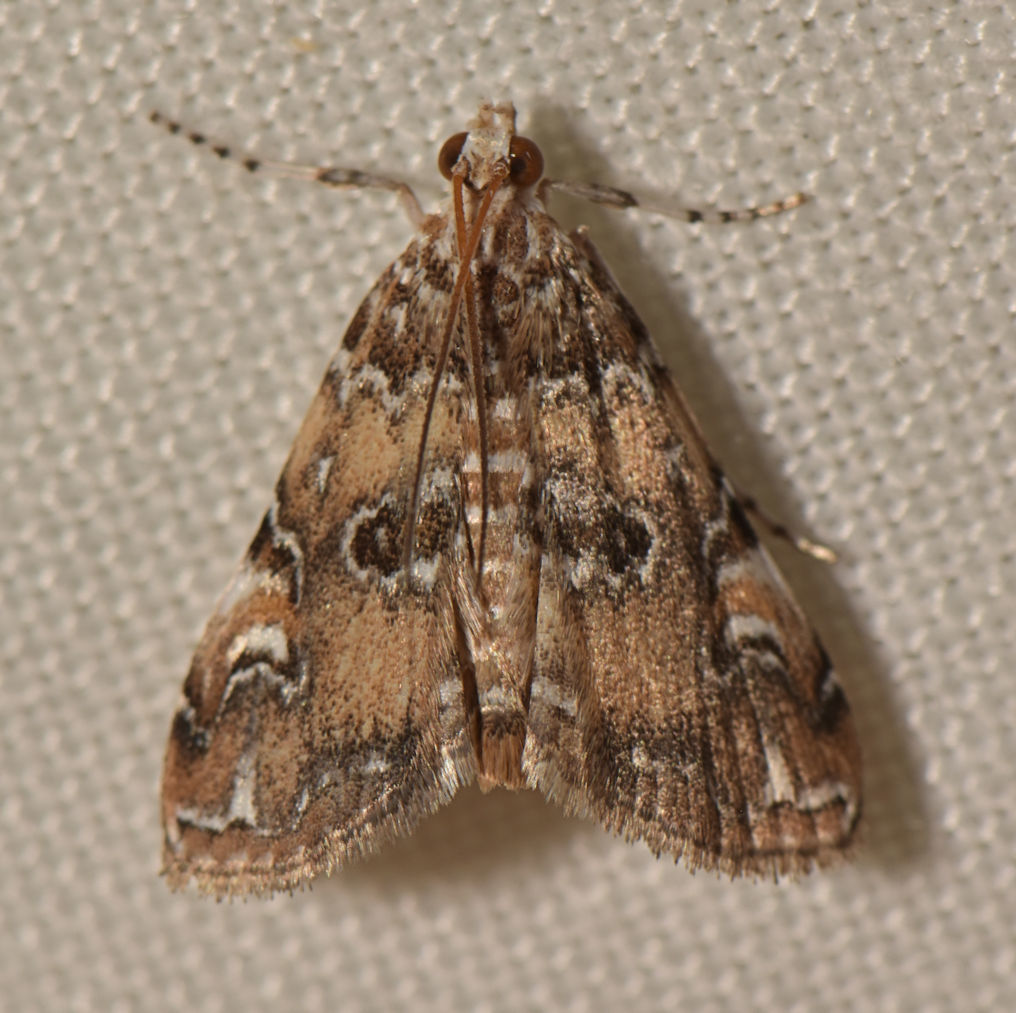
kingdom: Animalia
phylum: Arthropoda
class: Insecta
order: Lepidoptera
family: Crambidae
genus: Elophila
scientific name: Elophila gyralis
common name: Waterlily borer moth
